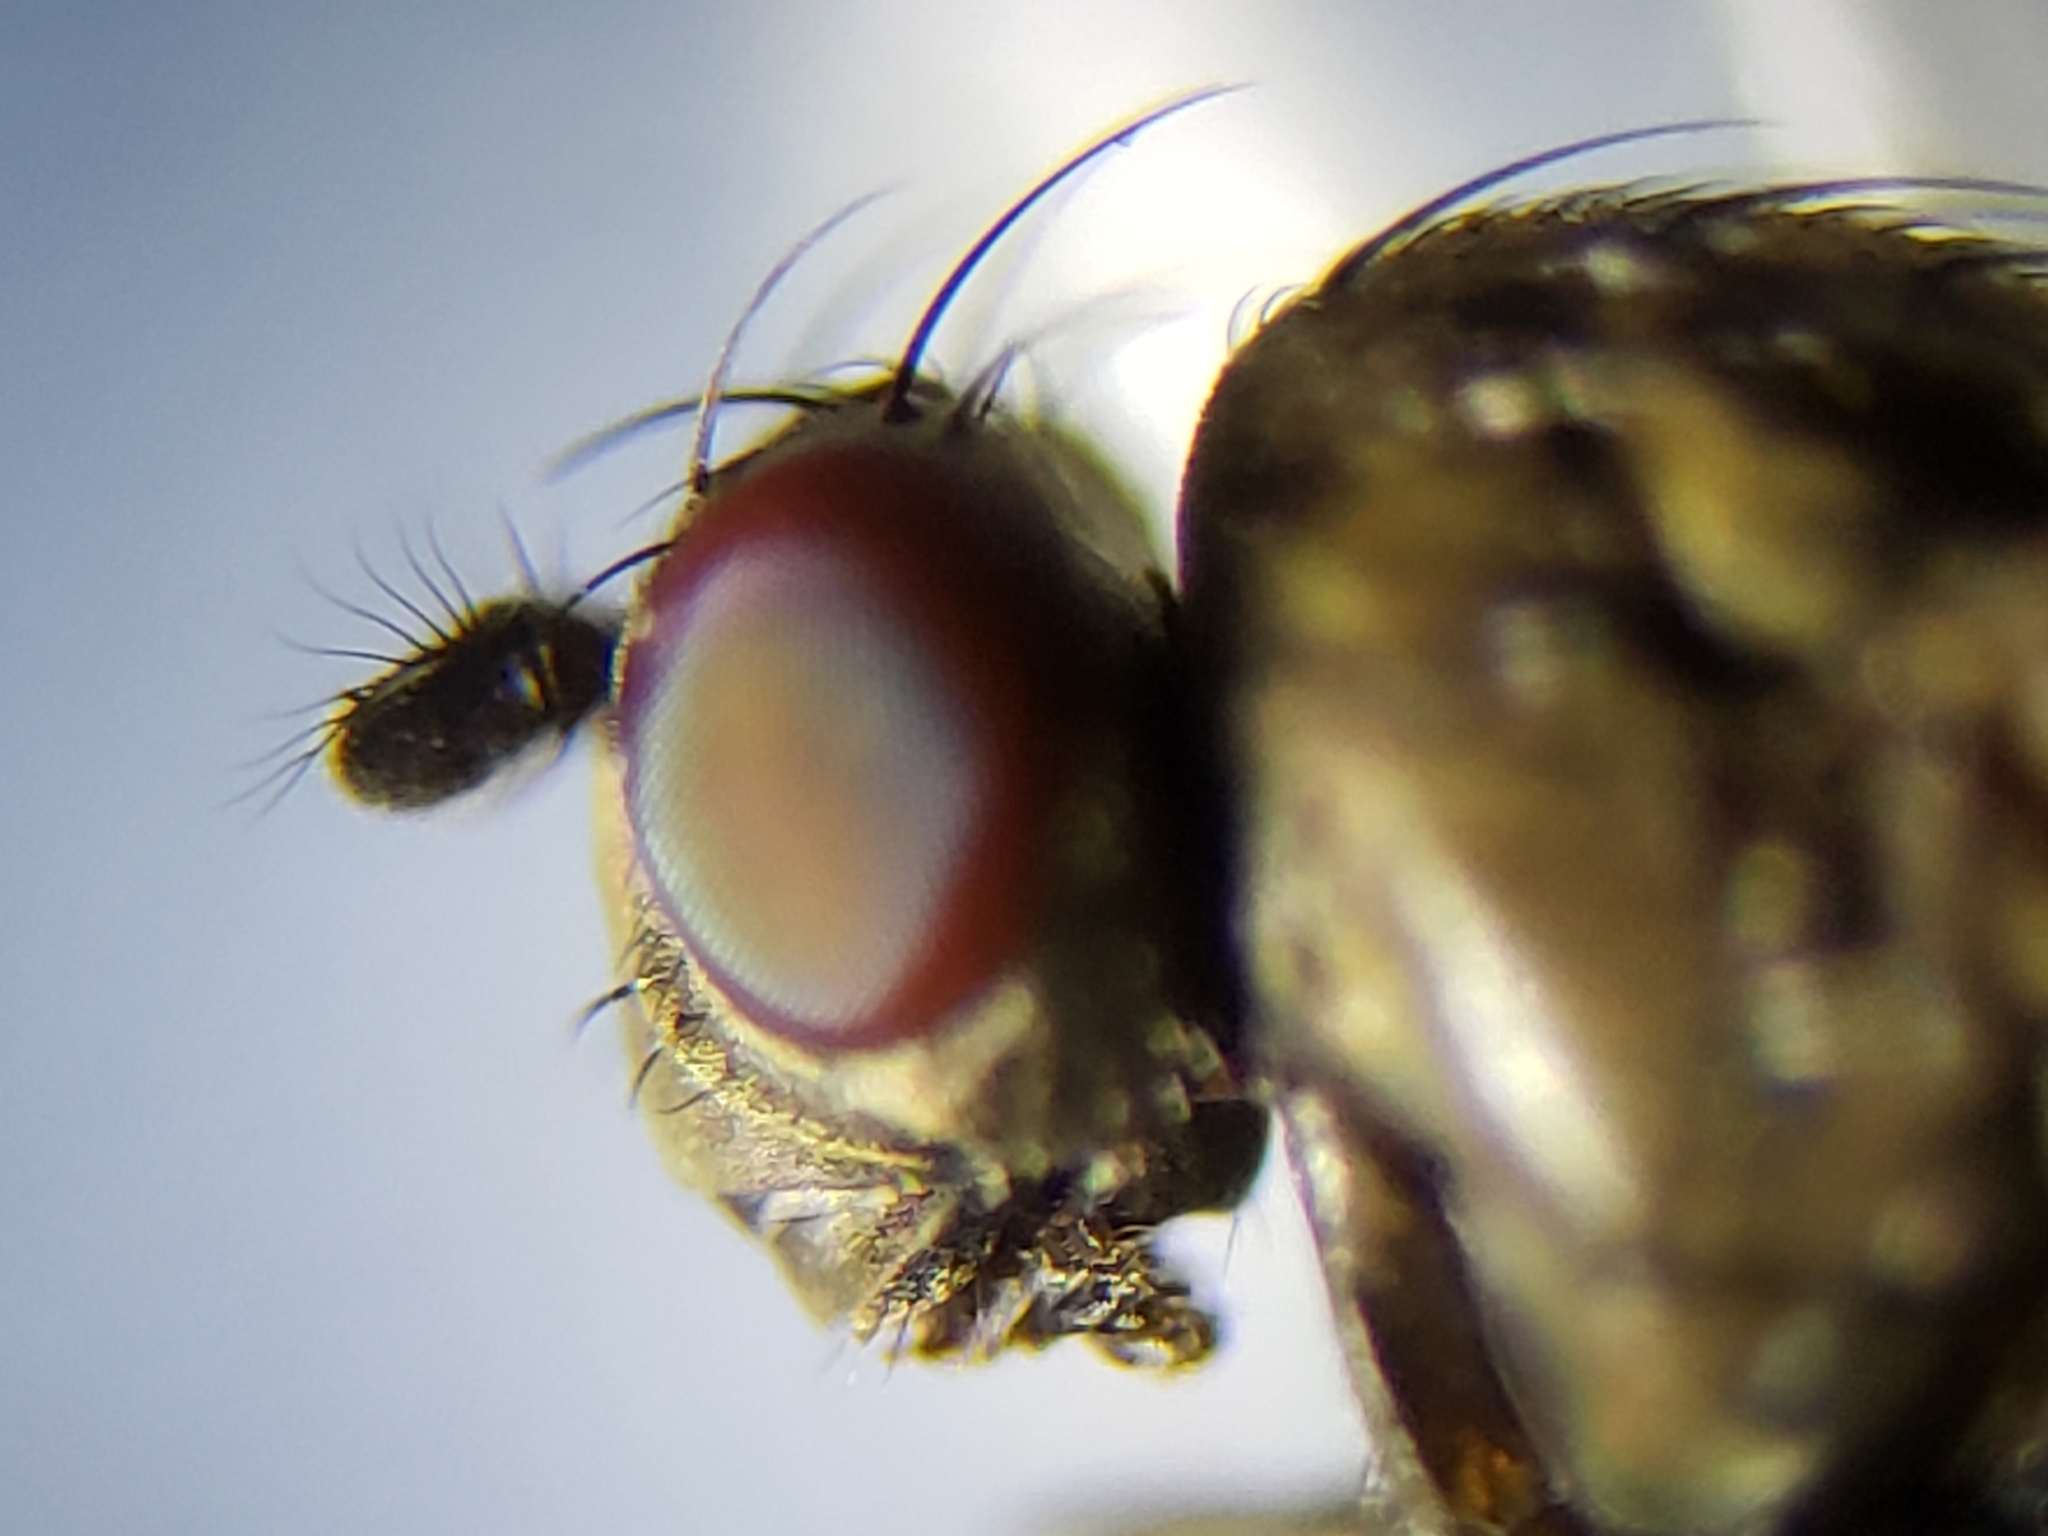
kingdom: Animalia
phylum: Arthropoda
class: Insecta
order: Diptera
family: Ephydridae
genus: Paralimna
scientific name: Paralimna obscura
